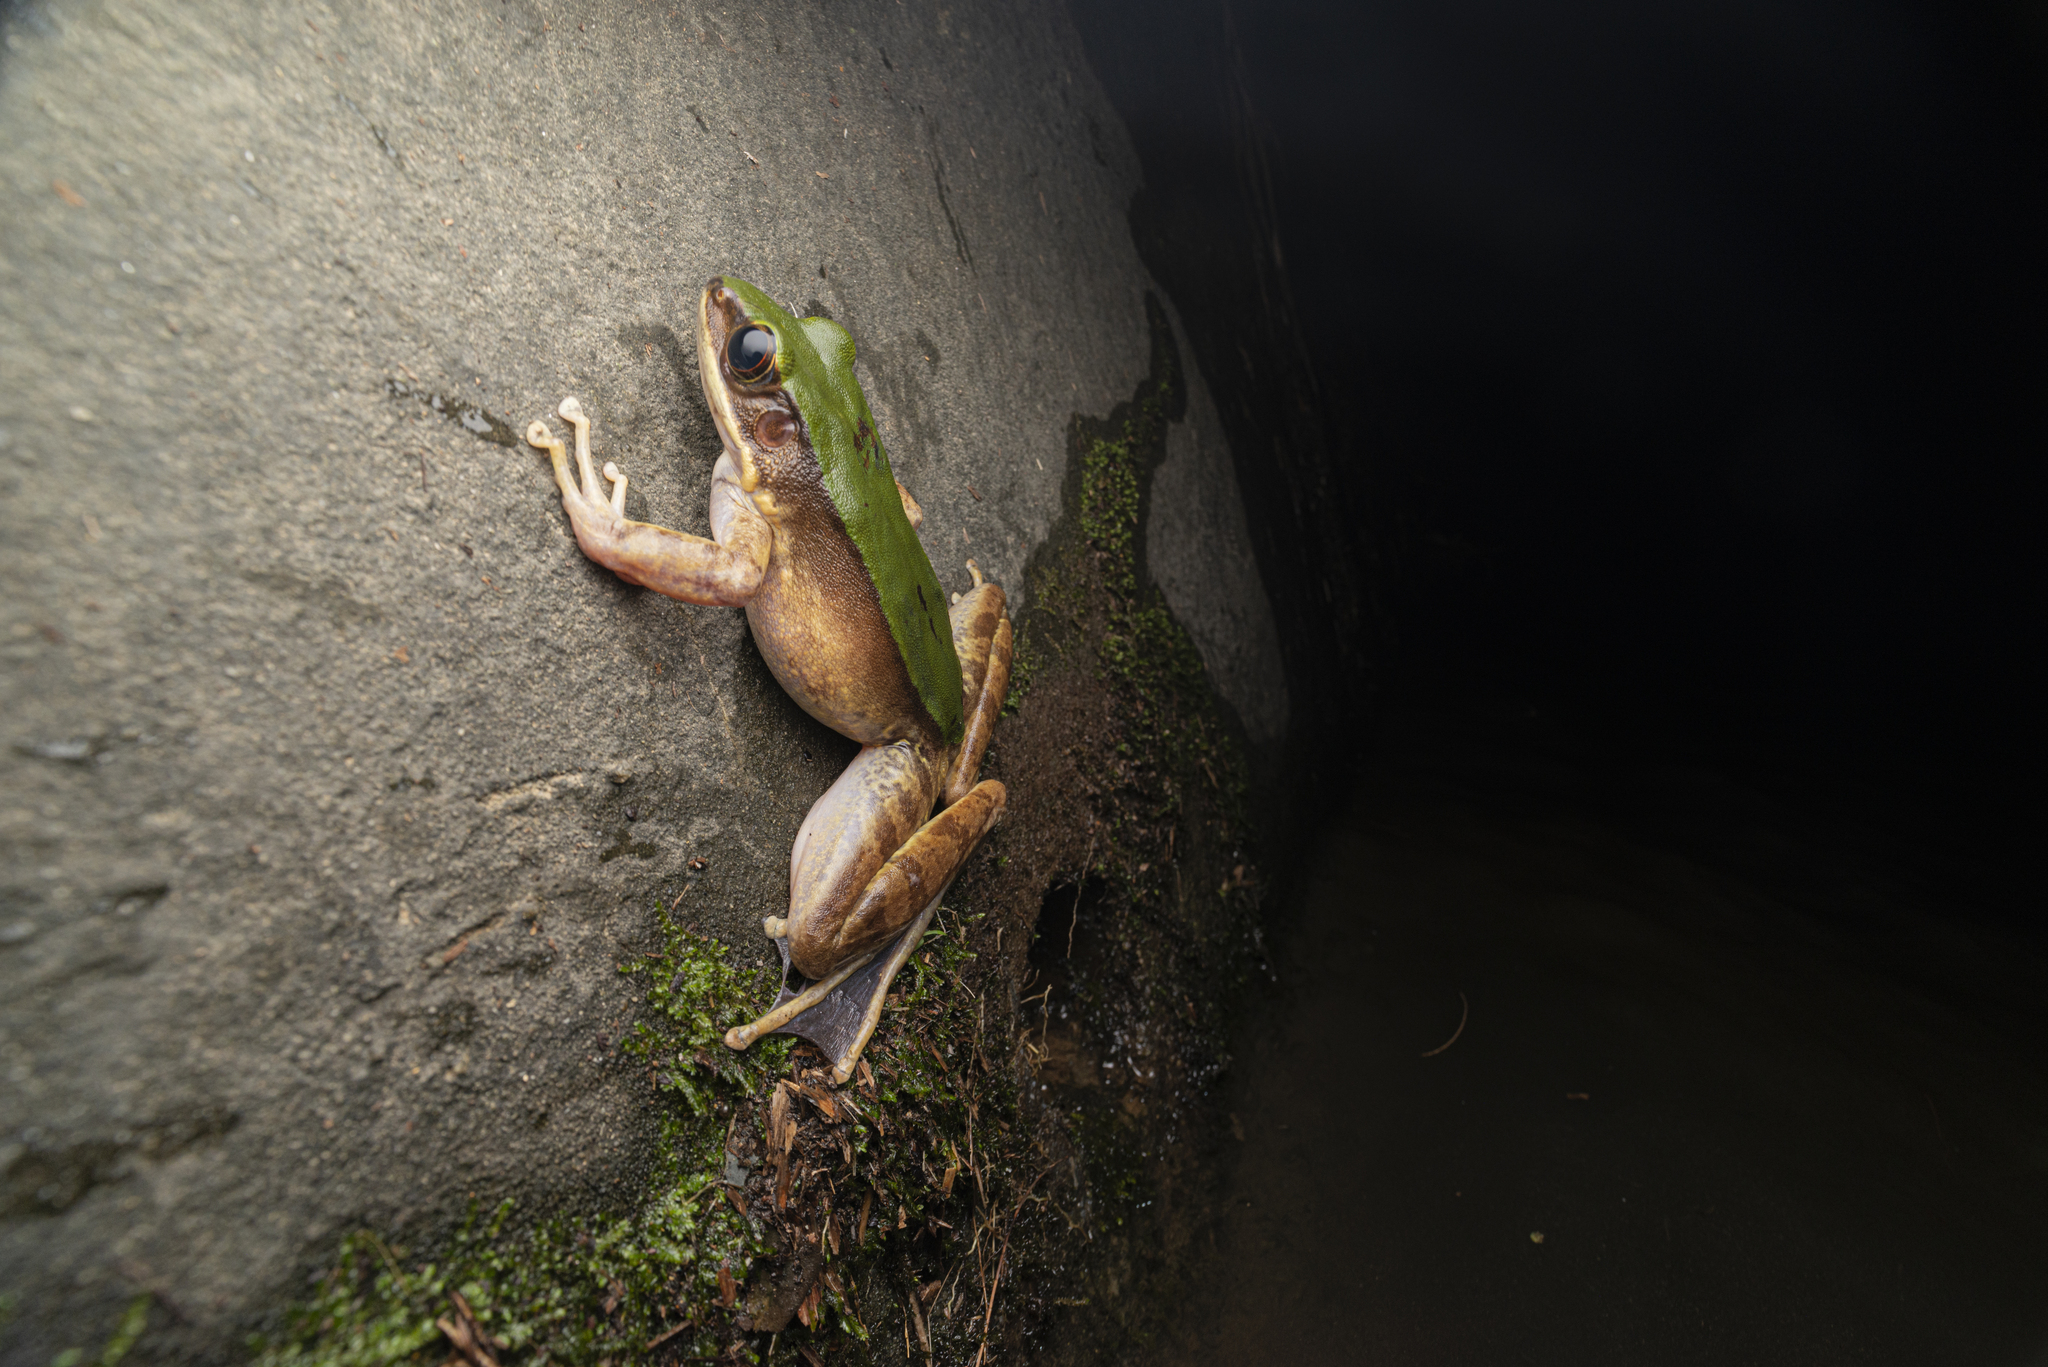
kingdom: Animalia
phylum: Chordata
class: Amphibia
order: Anura
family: Ranidae
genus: Odorrana
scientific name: Odorrana graminea
